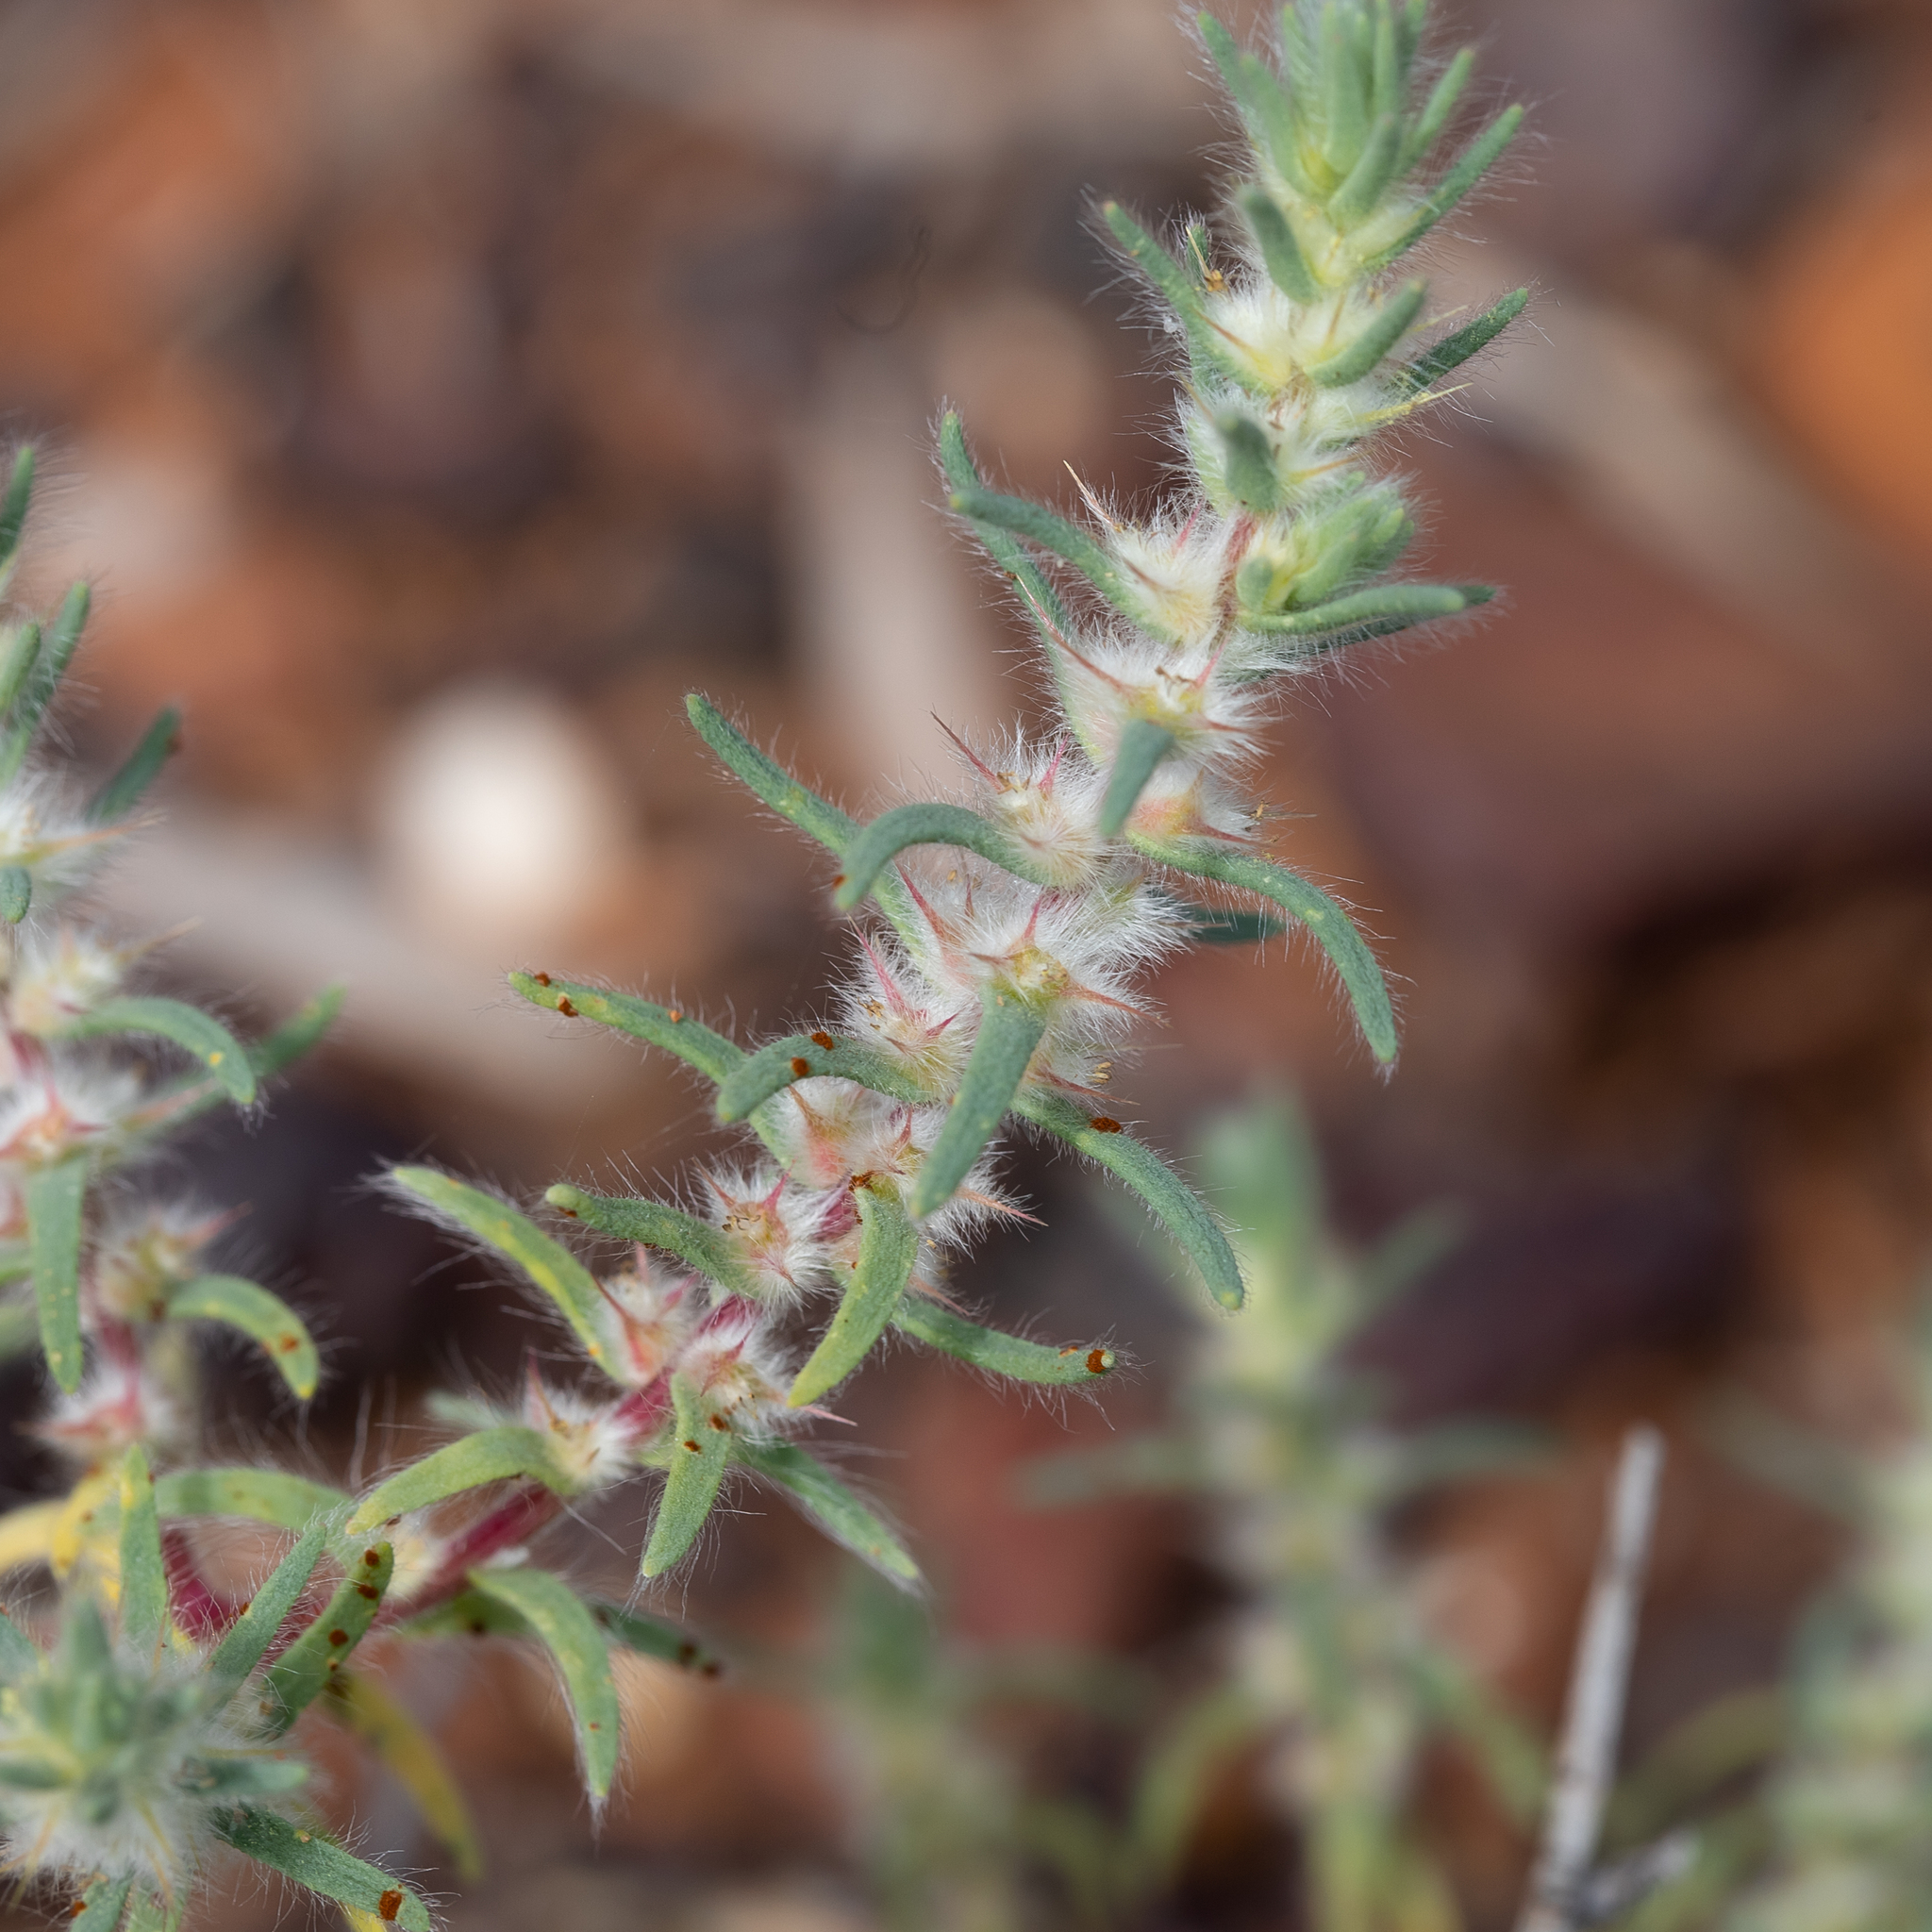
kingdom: Plantae
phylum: Tracheophyta
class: Magnoliopsida
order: Caryophyllales
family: Amaranthaceae
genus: Sclerolaena
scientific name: Sclerolaena lanicuspis
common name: Copperbur
